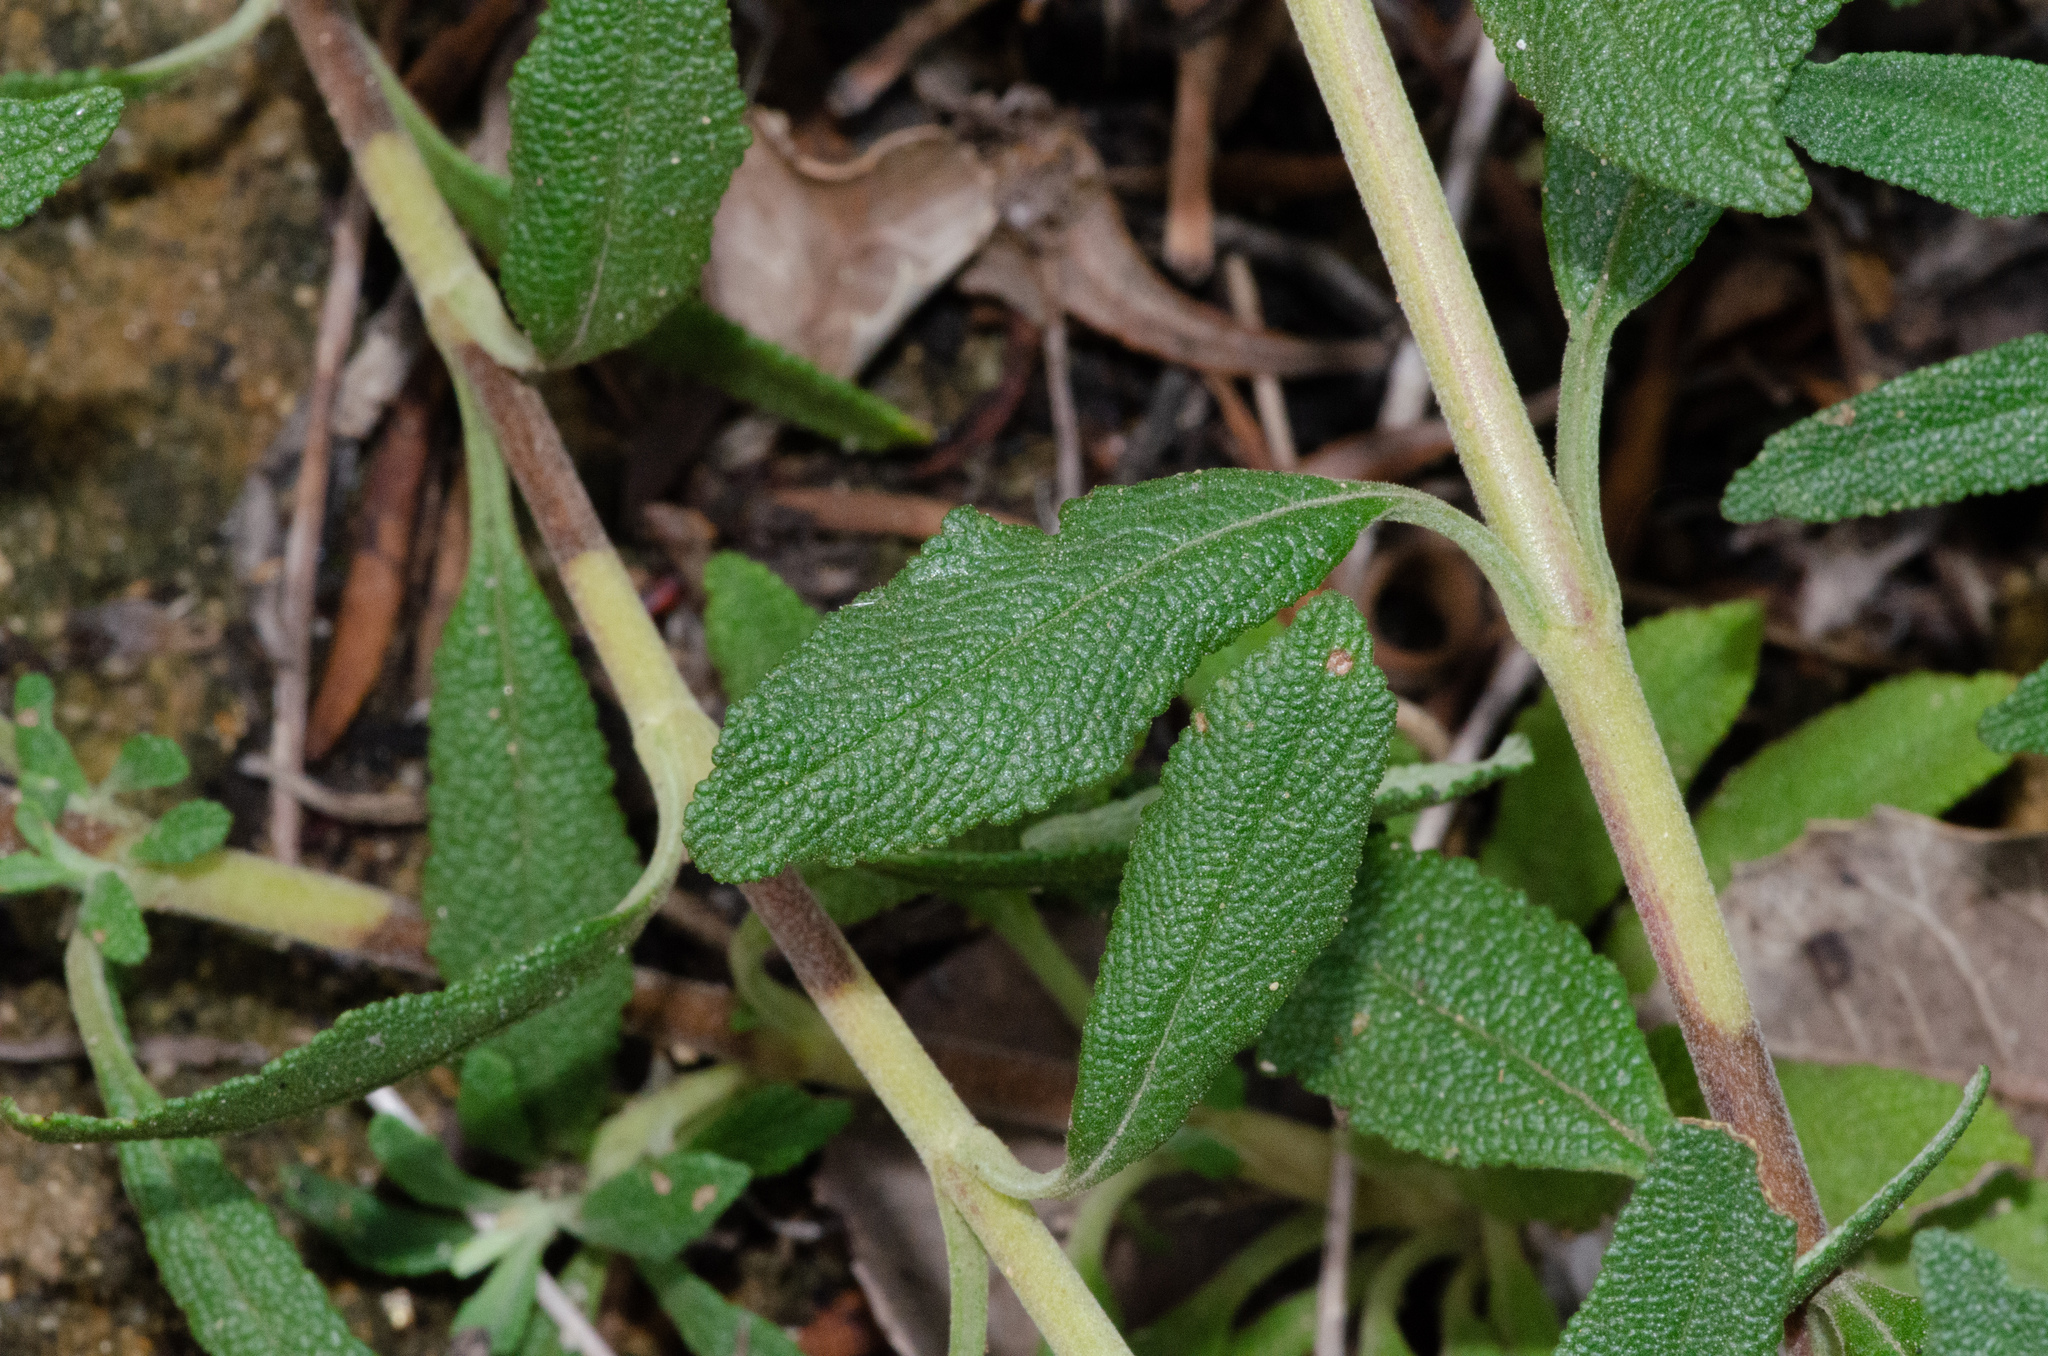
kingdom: Plantae
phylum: Tracheophyta
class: Magnoliopsida
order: Lamiales
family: Lamiaceae
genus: Salvia
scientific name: Salvia mellifera
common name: Black sage
